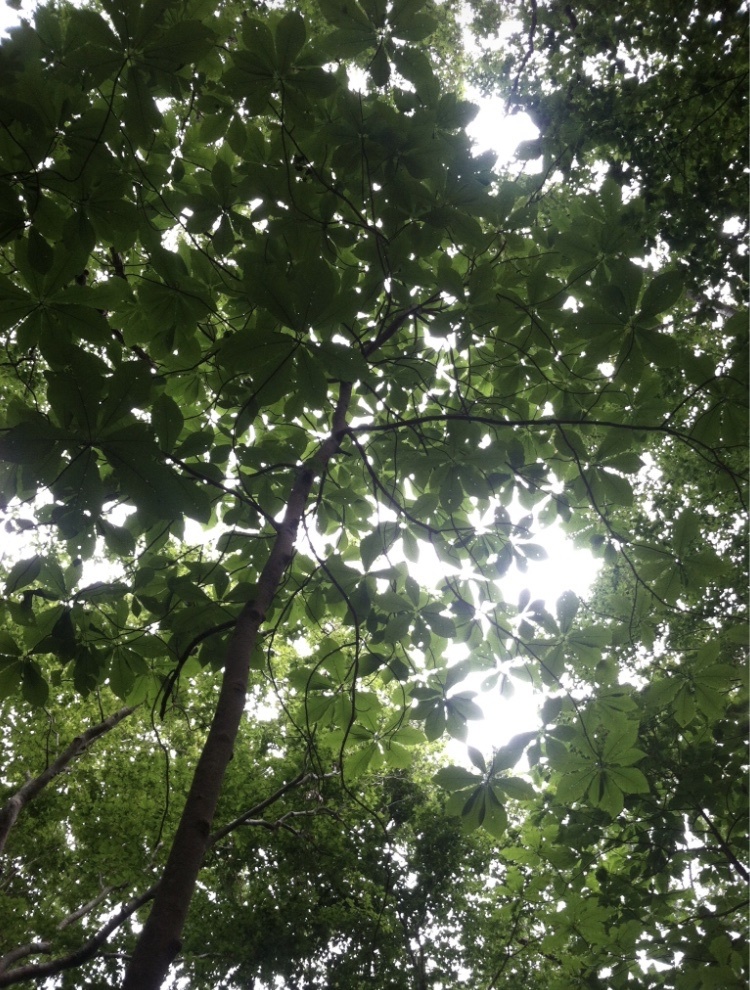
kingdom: Plantae
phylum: Tracheophyta
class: Magnoliopsida
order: Magnoliales
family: Magnoliaceae
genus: Magnolia
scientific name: Magnolia macrophylla
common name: Big-leaf magnolia
